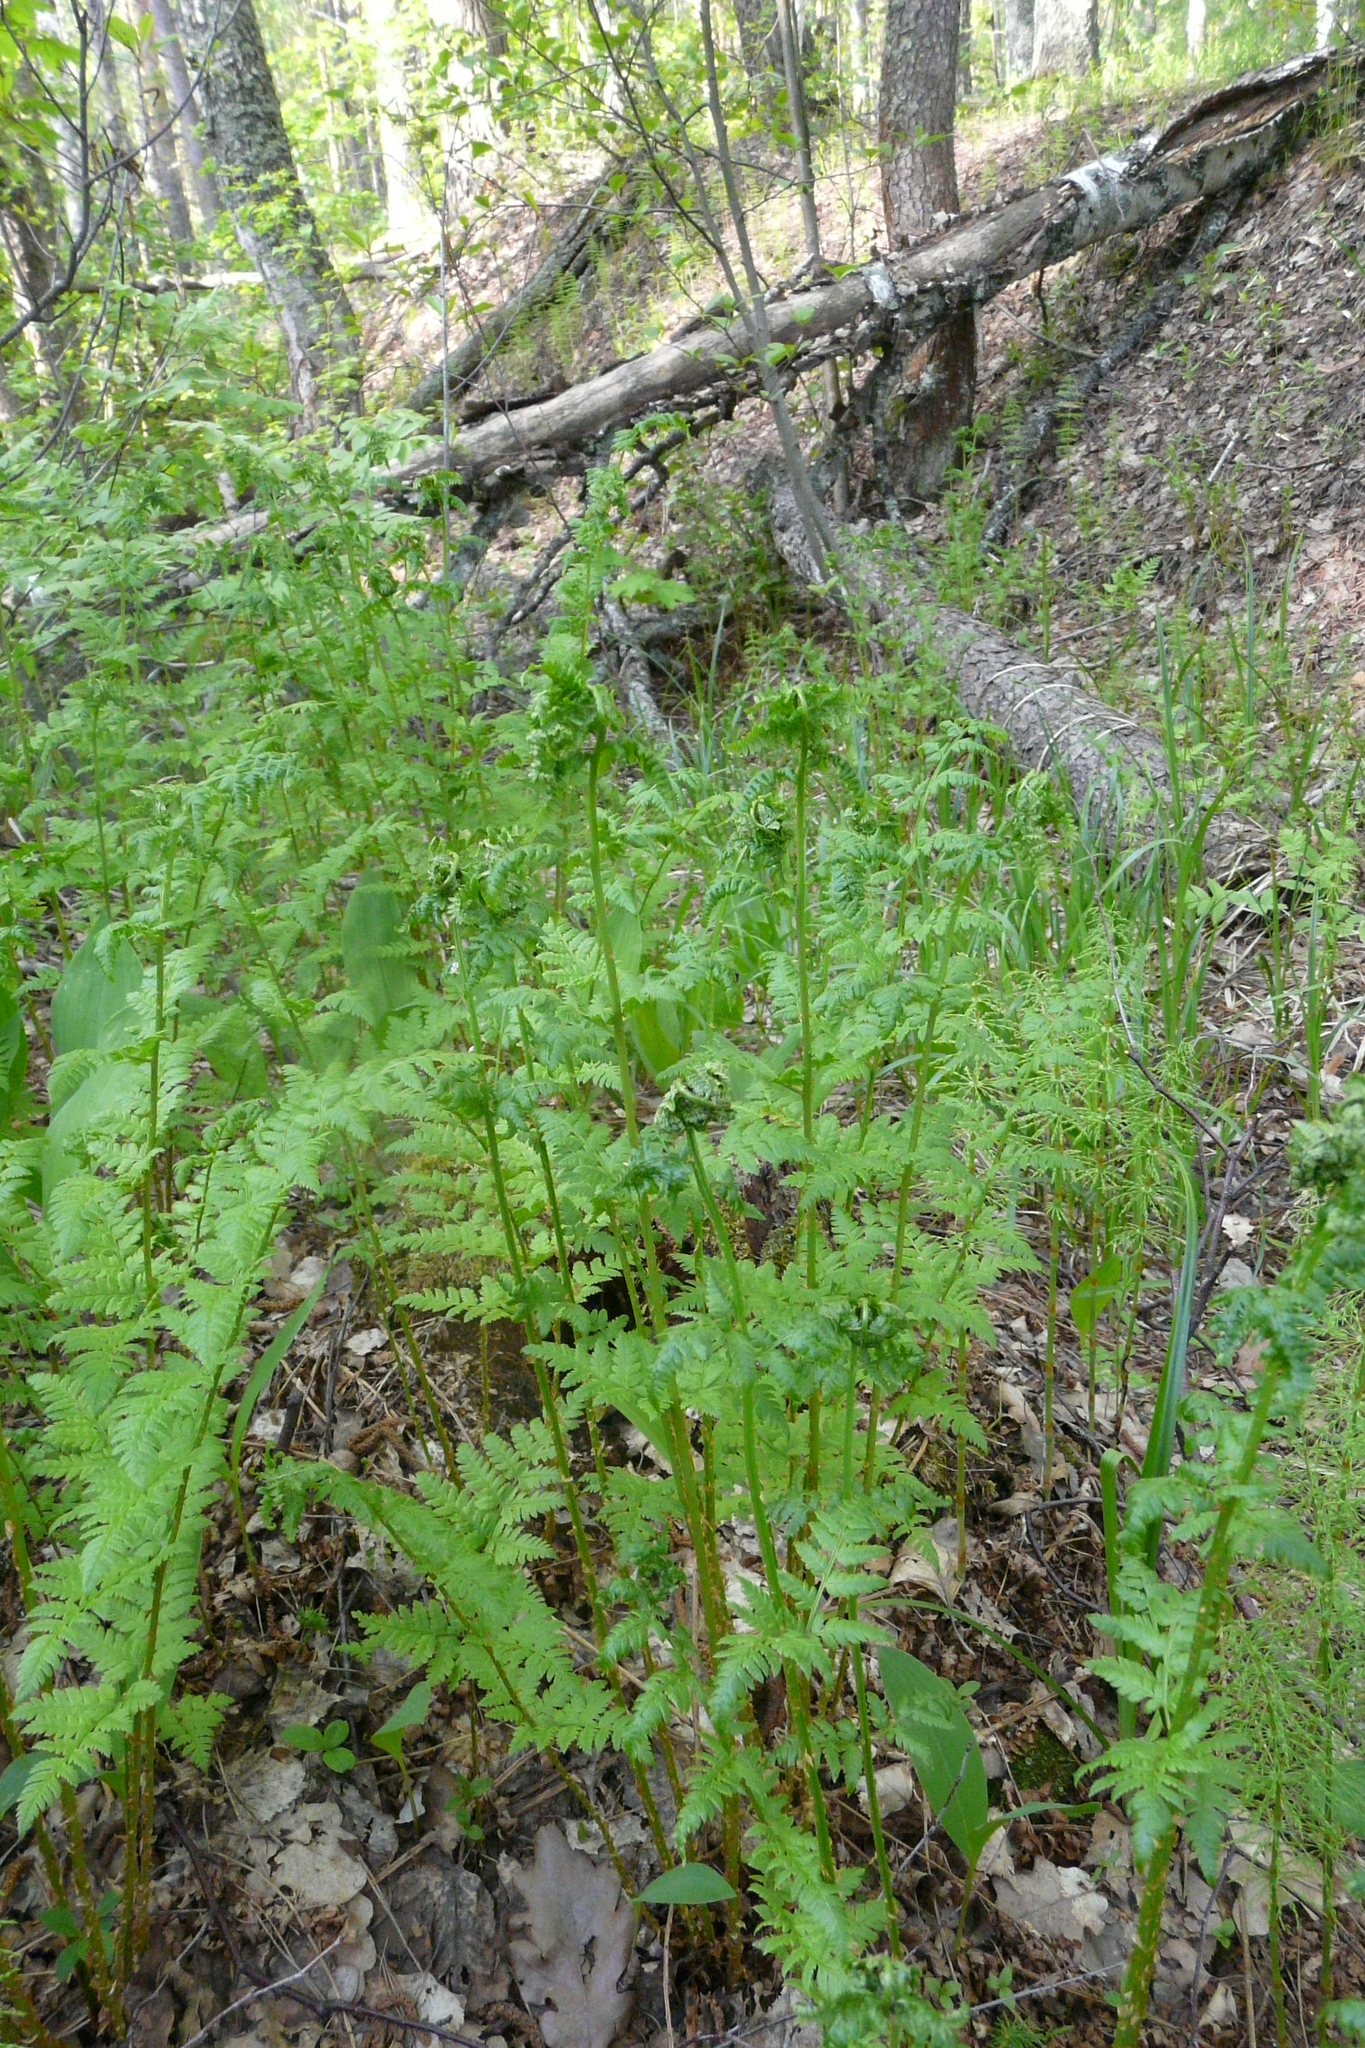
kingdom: Plantae
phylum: Tracheophyta
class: Polypodiopsida
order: Polypodiales
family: Dryopteridaceae
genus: Dryopteris
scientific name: Dryopteris carthusiana
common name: Narrow buckler-fern
